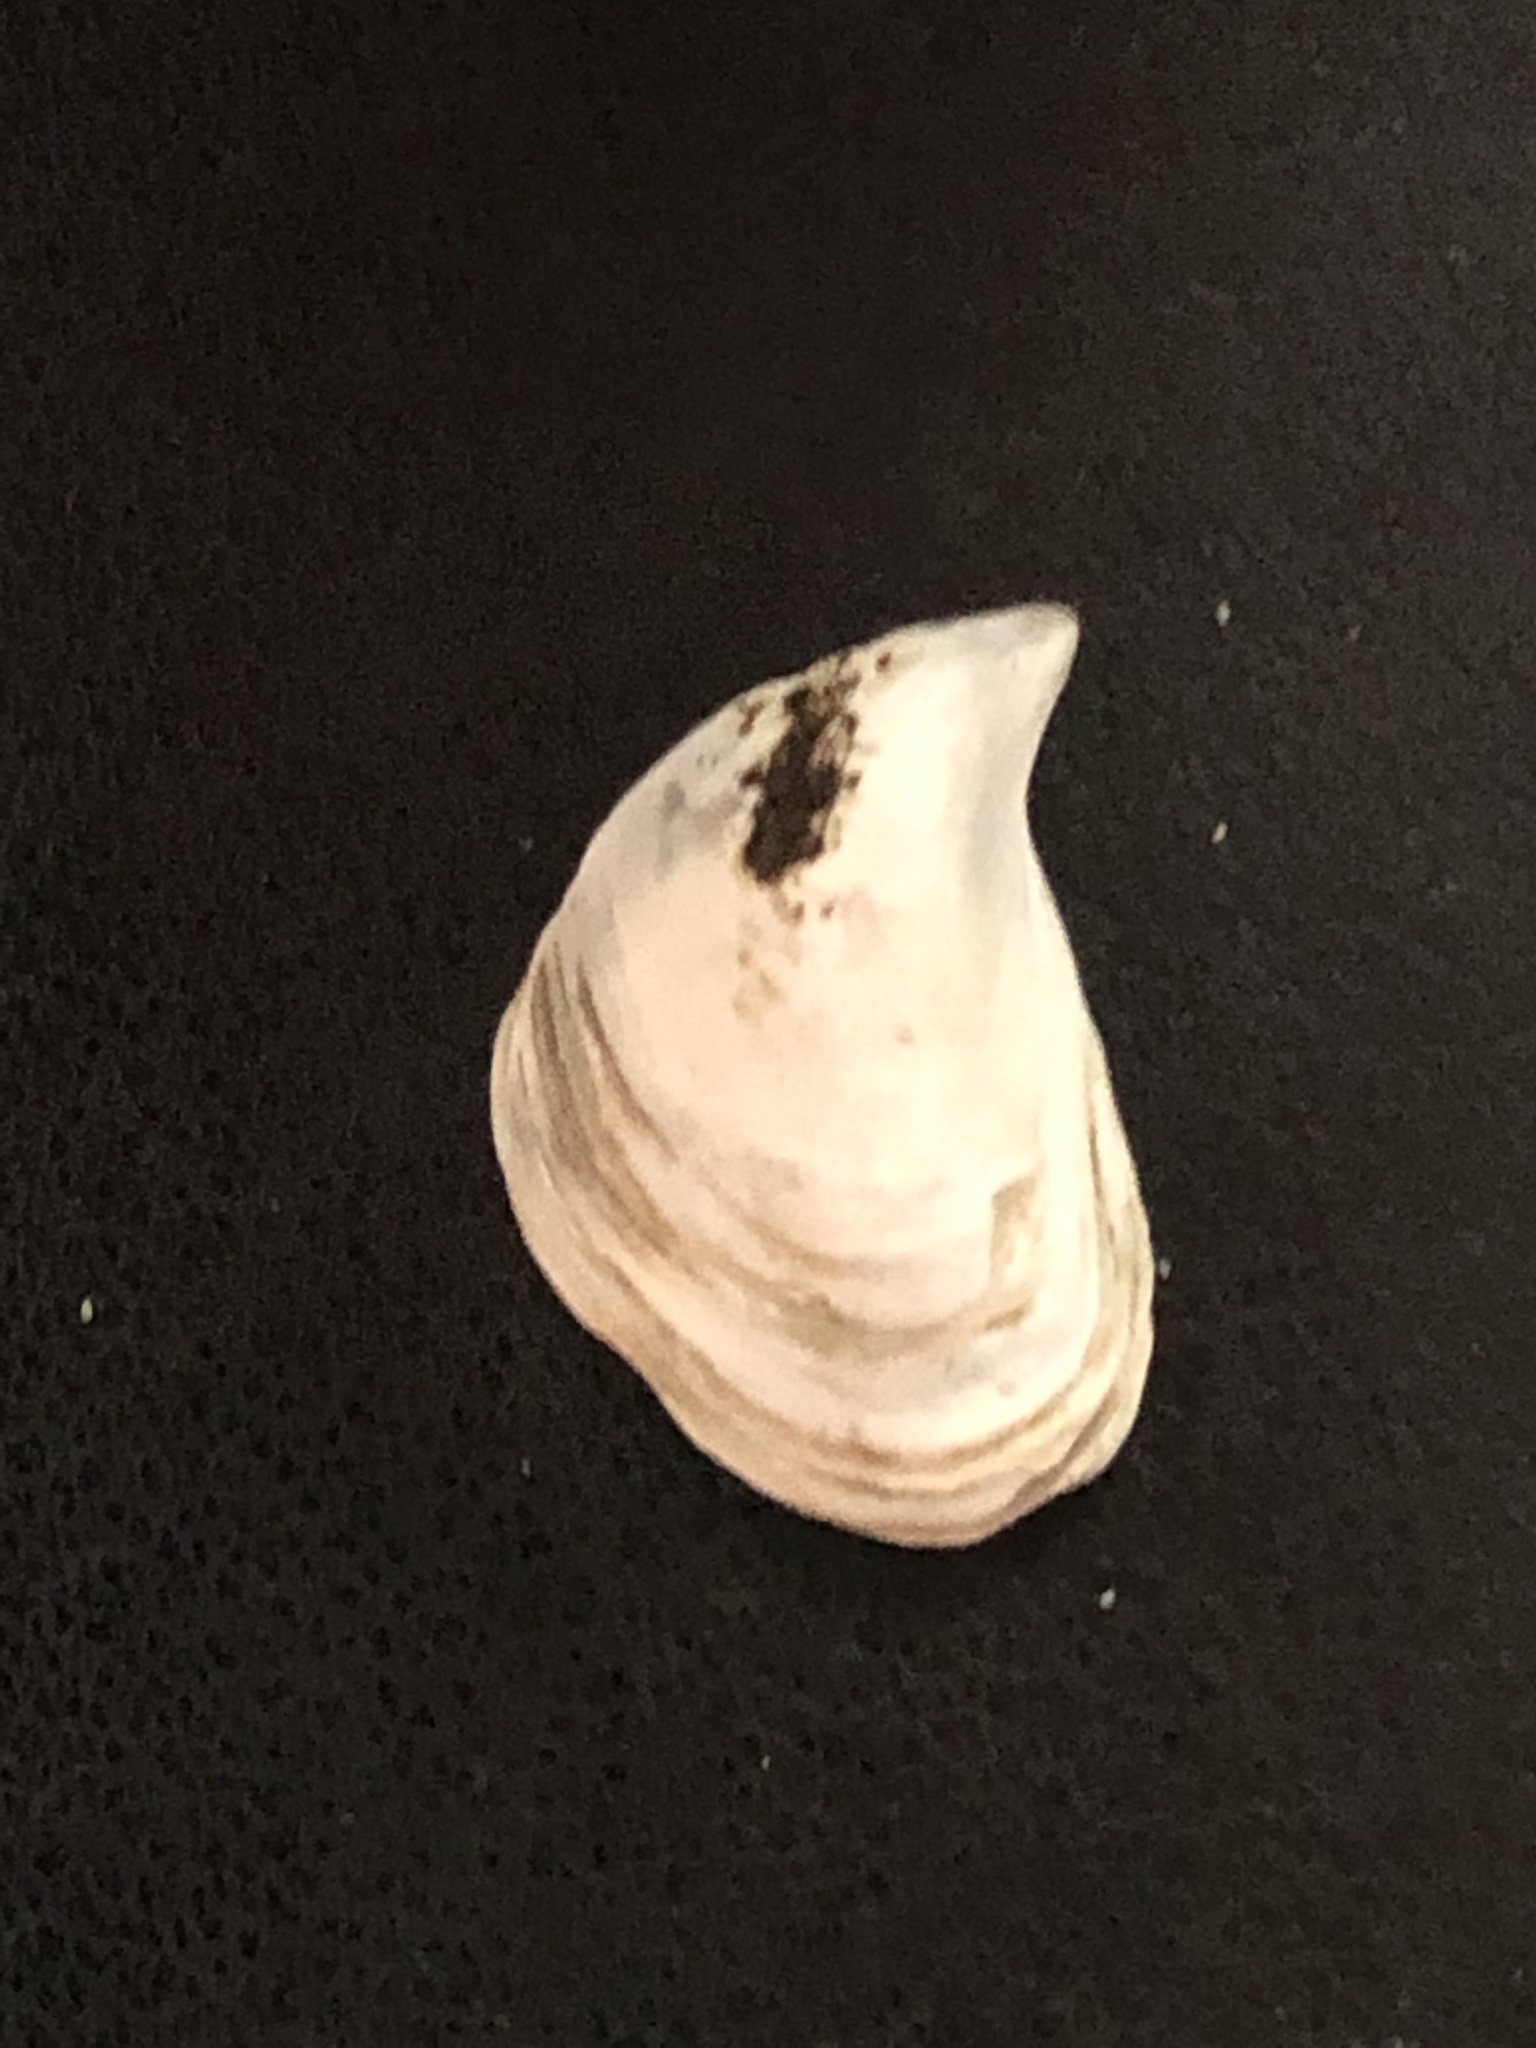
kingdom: Animalia
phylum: Mollusca
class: Bivalvia
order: Myida
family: Dreissenidae
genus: Dreissena
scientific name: Dreissena bugensis
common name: Quagga mussel
